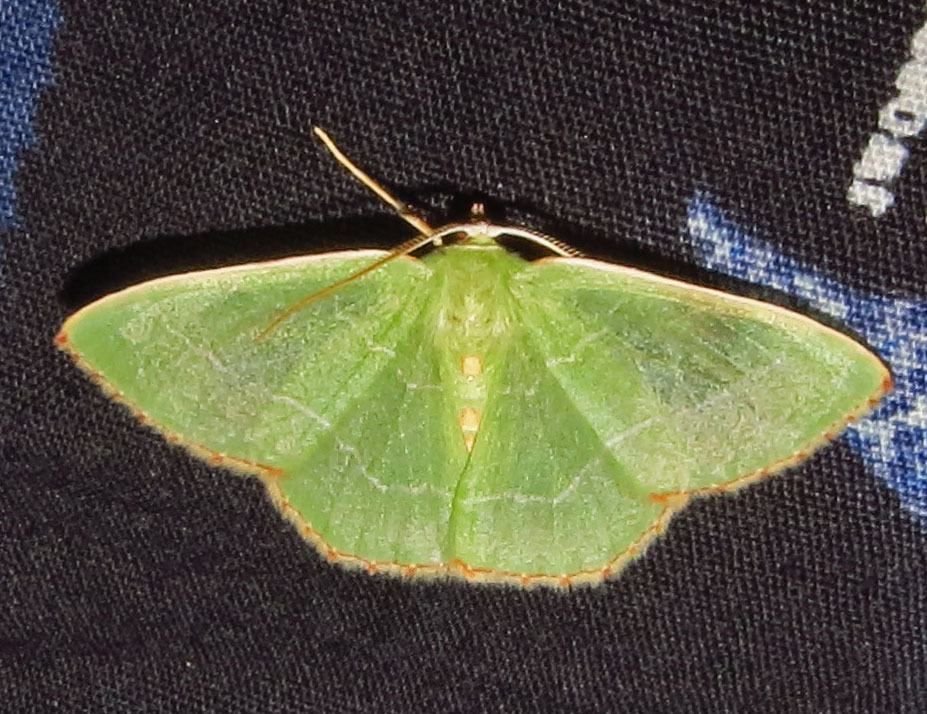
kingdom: Animalia
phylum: Arthropoda
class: Insecta
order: Lepidoptera
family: Geometridae
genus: Nemoria
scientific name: Nemoria bistriaria
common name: Red-fringed emerald
